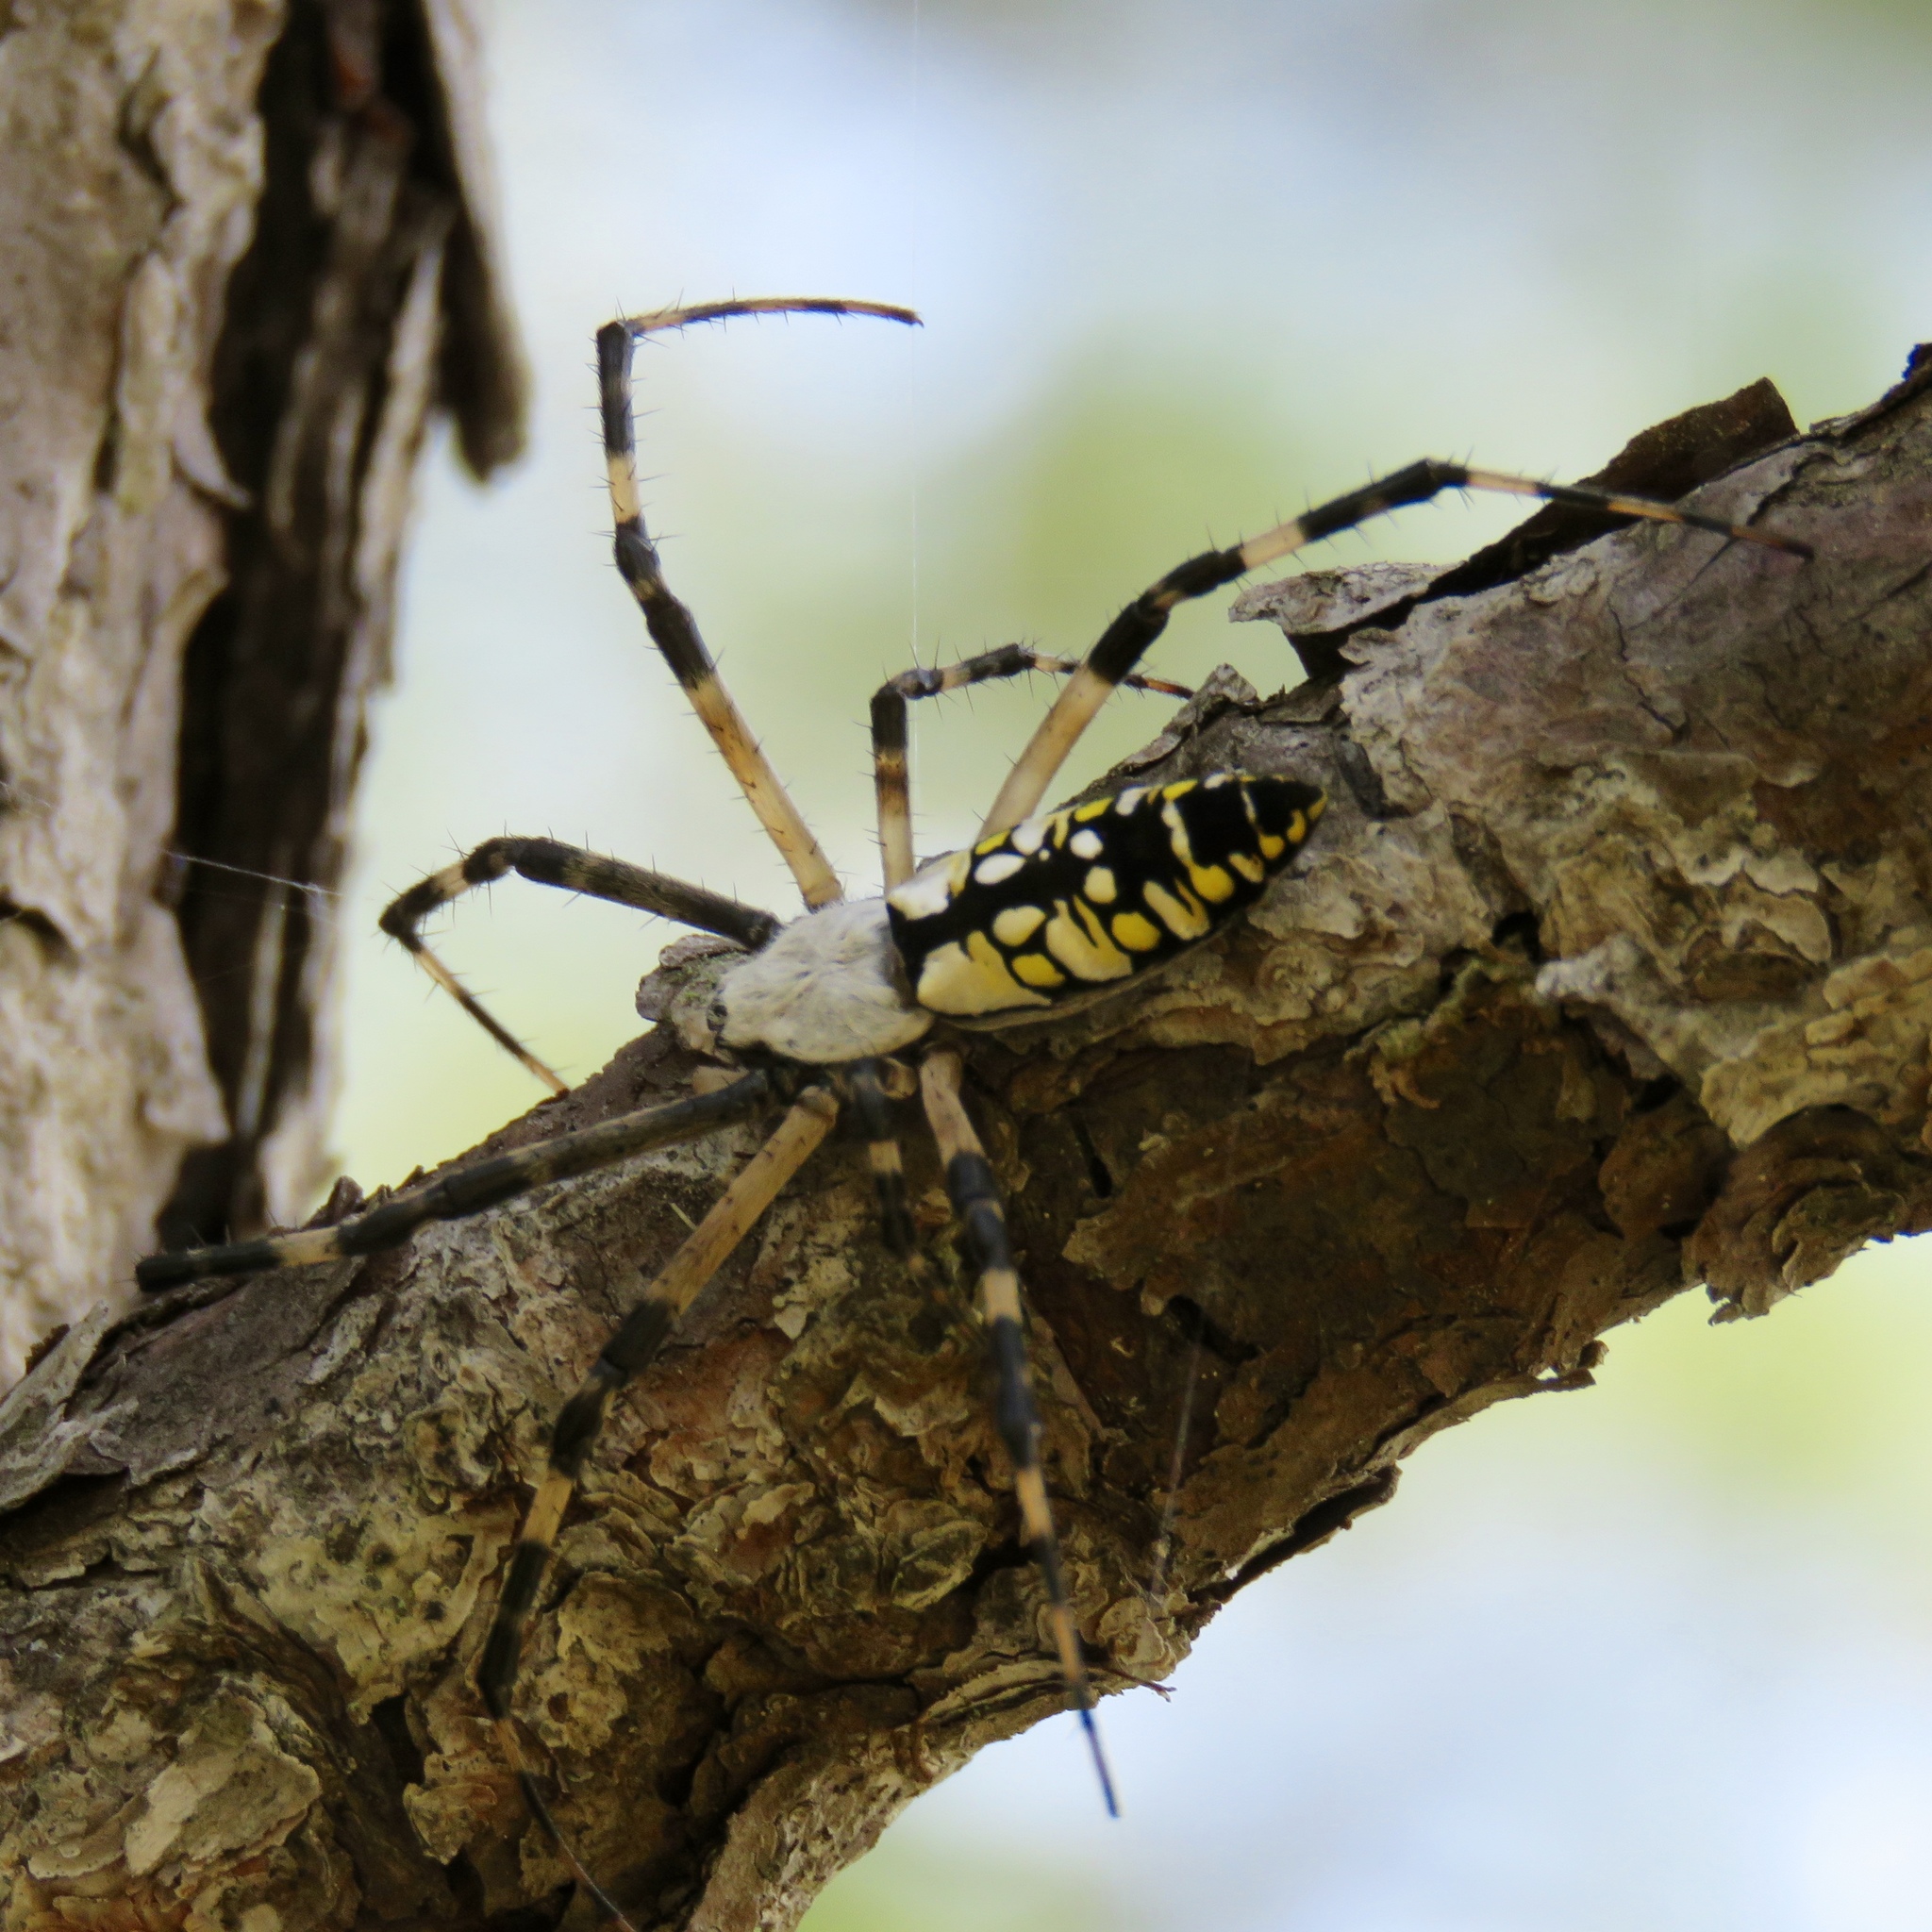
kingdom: Animalia
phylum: Arthropoda
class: Arachnida
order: Araneae
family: Araneidae
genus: Argiope
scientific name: Argiope aurantia
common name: Orb weavers
